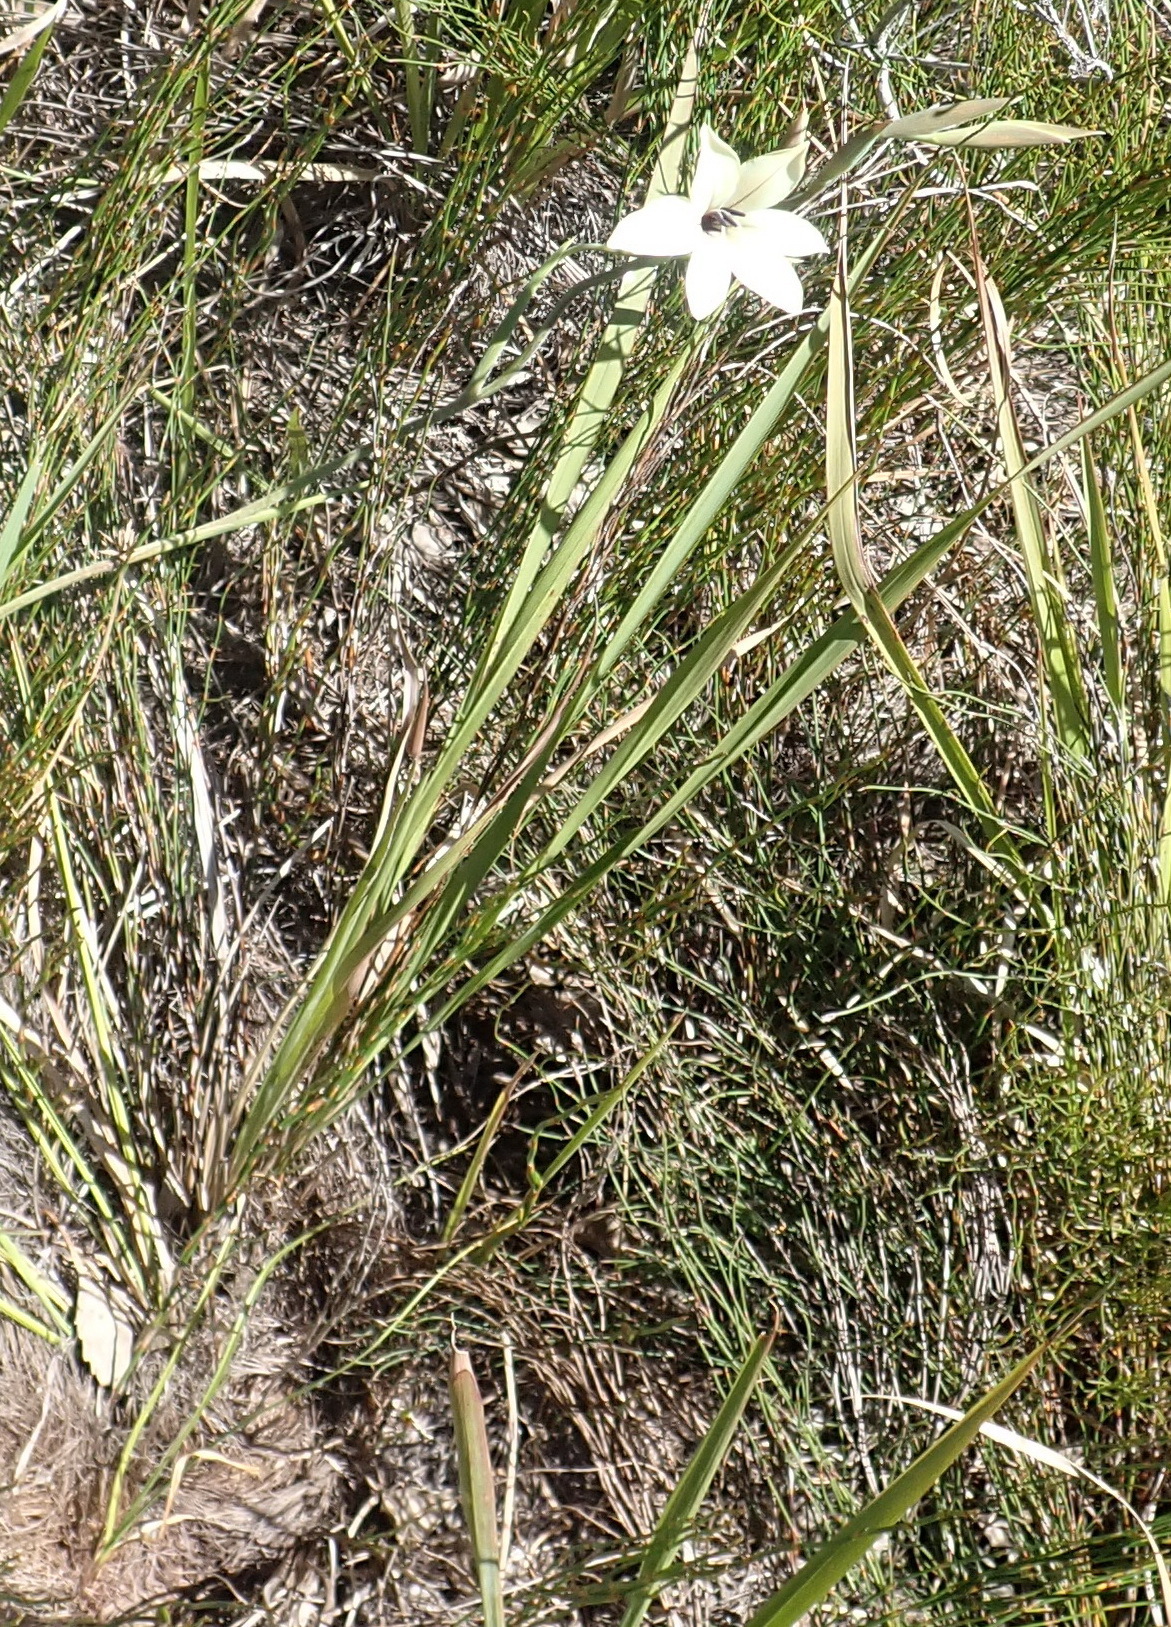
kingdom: Plantae
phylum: Tracheophyta
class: Liliopsida
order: Asparagales
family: Iridaceae
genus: Gladiolus
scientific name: Gladiolus grandiflorus
